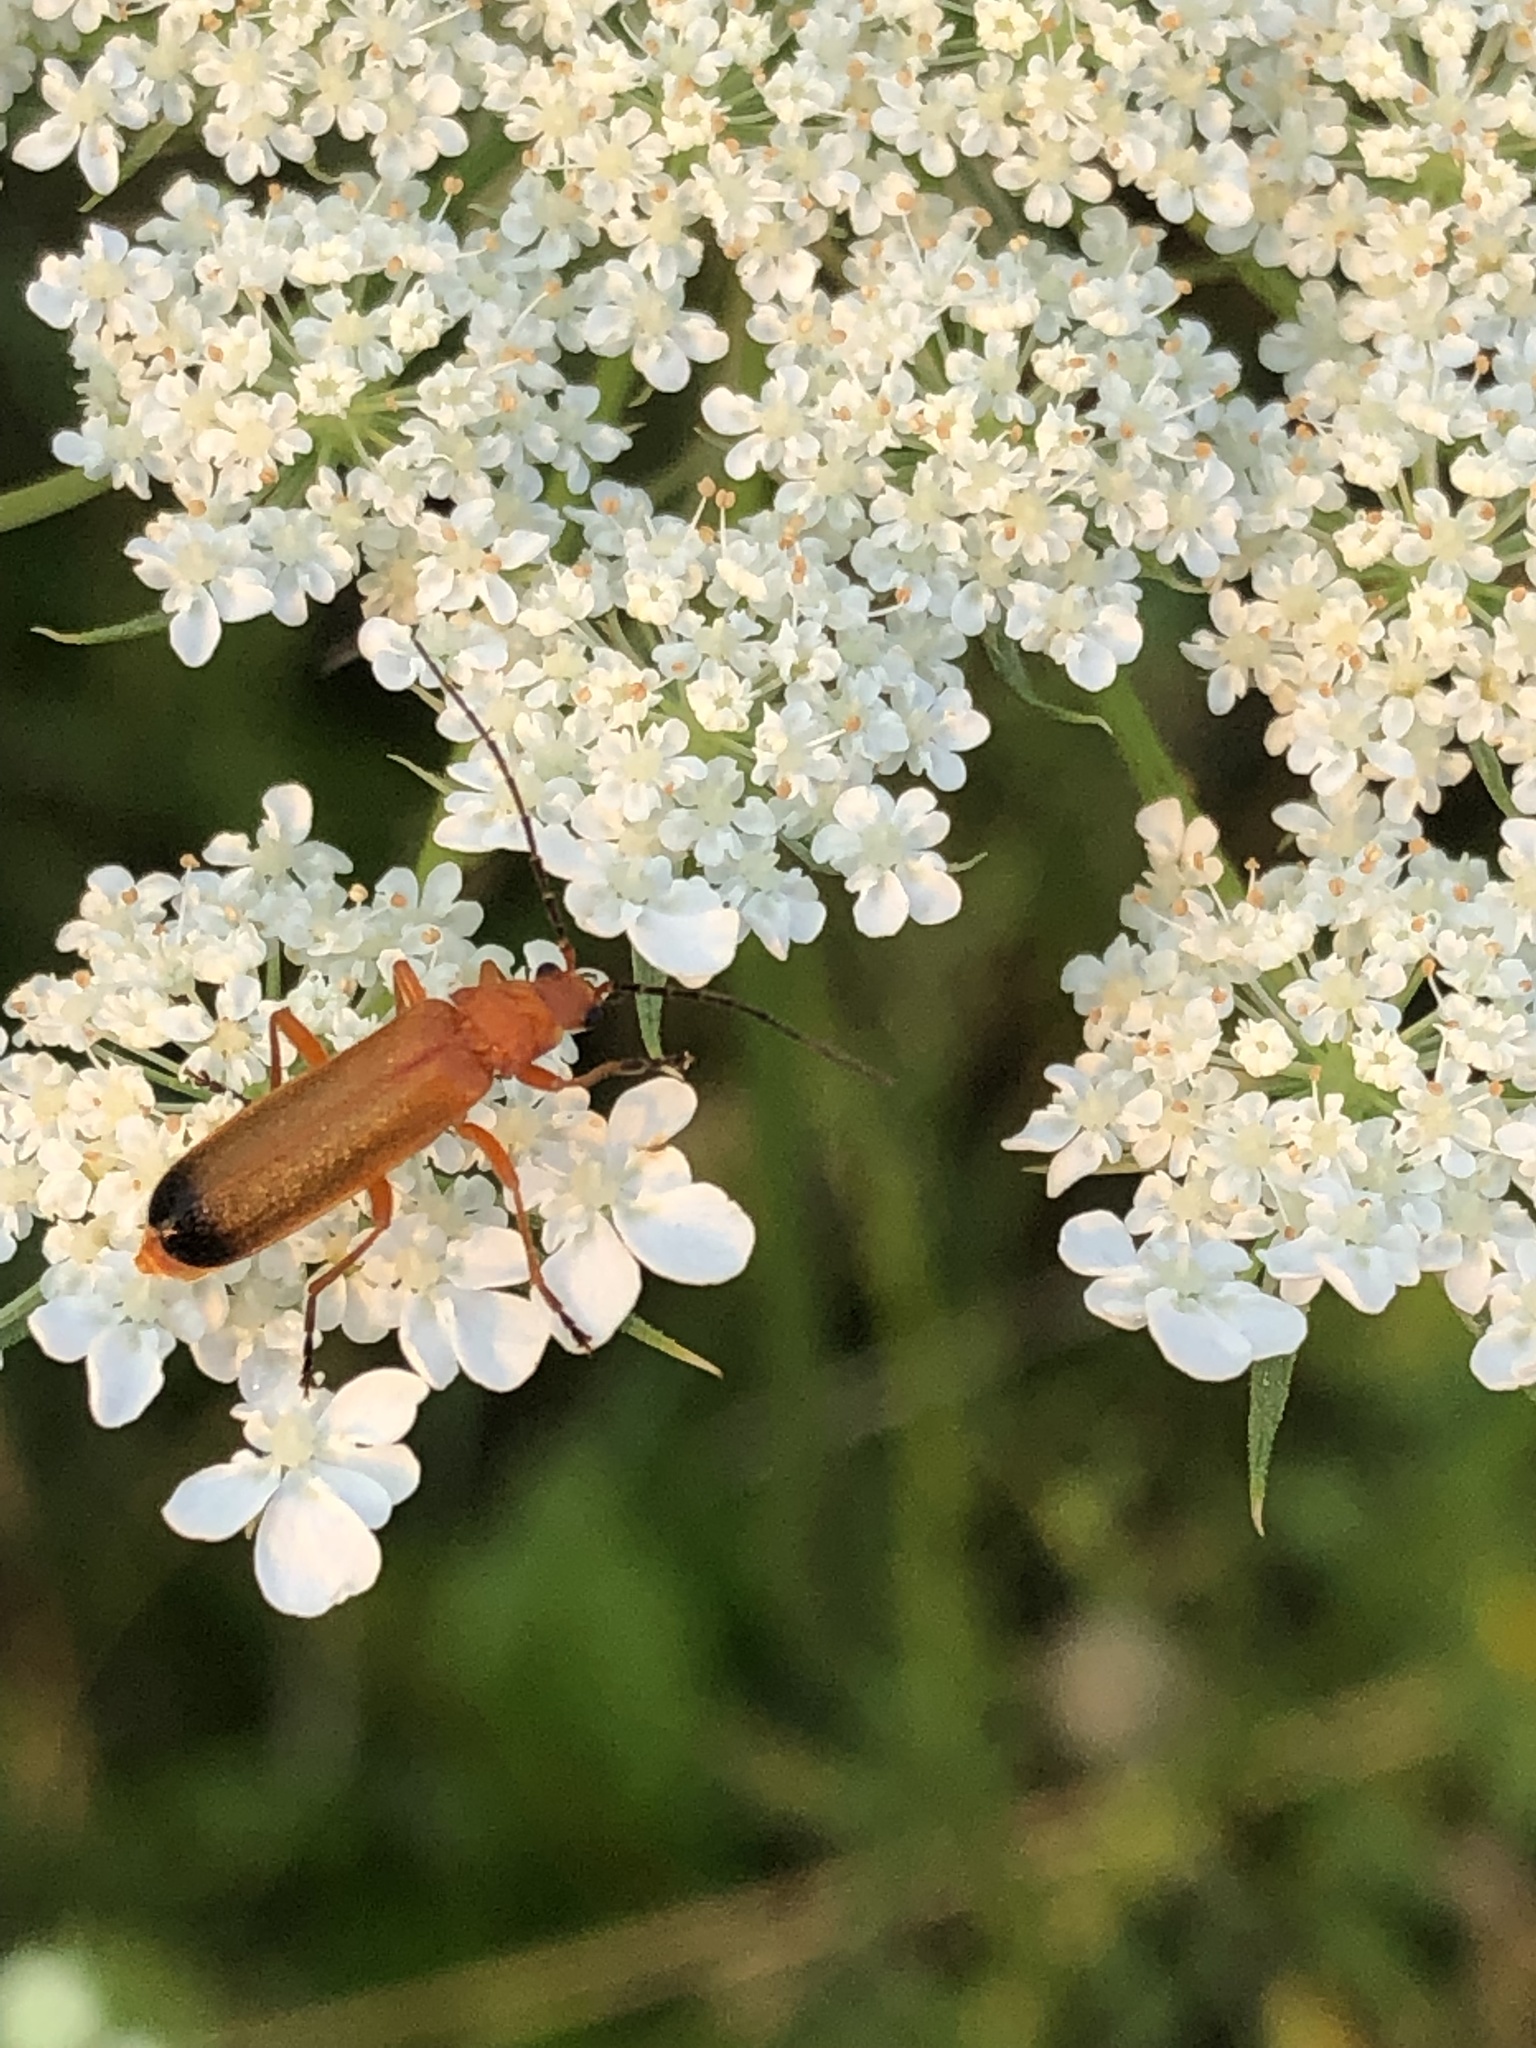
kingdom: Animalia
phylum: Arthropoda
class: Insecta
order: Coleoptera
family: Cantharidae
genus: Rhagonycha
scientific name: Rhagonycha fulva
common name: Common red soldier beetle
